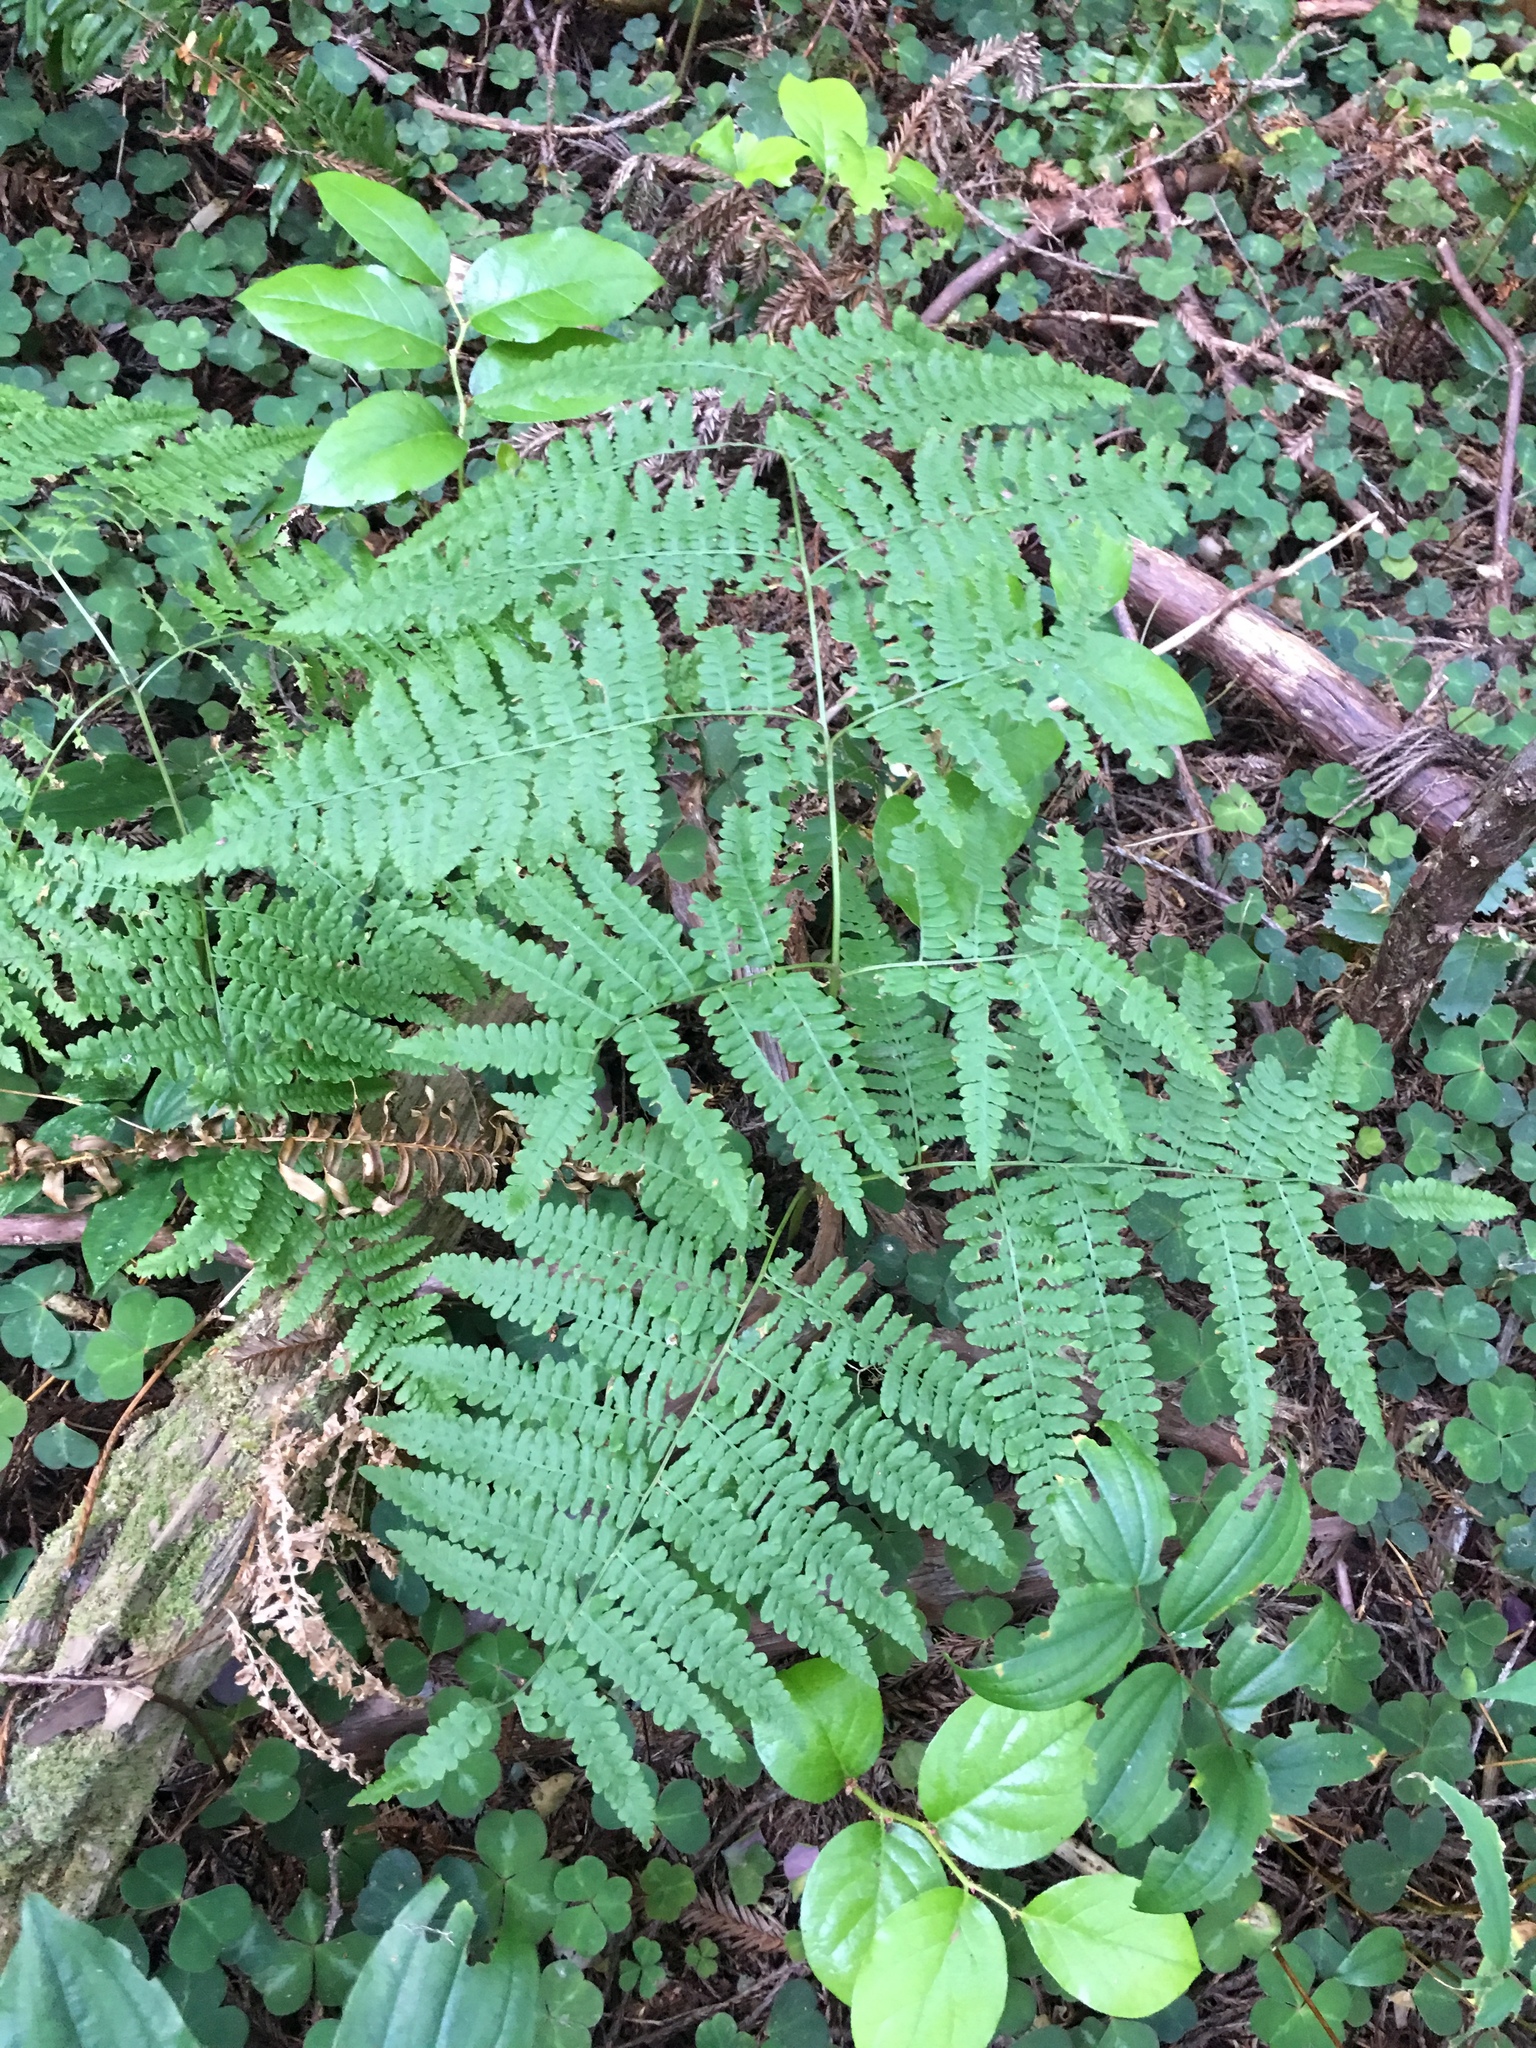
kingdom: Plantae
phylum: Tracheophyta
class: Polypodiopsida
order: Polypodiales
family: Dennstaedtiaceae
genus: Pteridium
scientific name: Pteridium aquilinum
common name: Bracken
